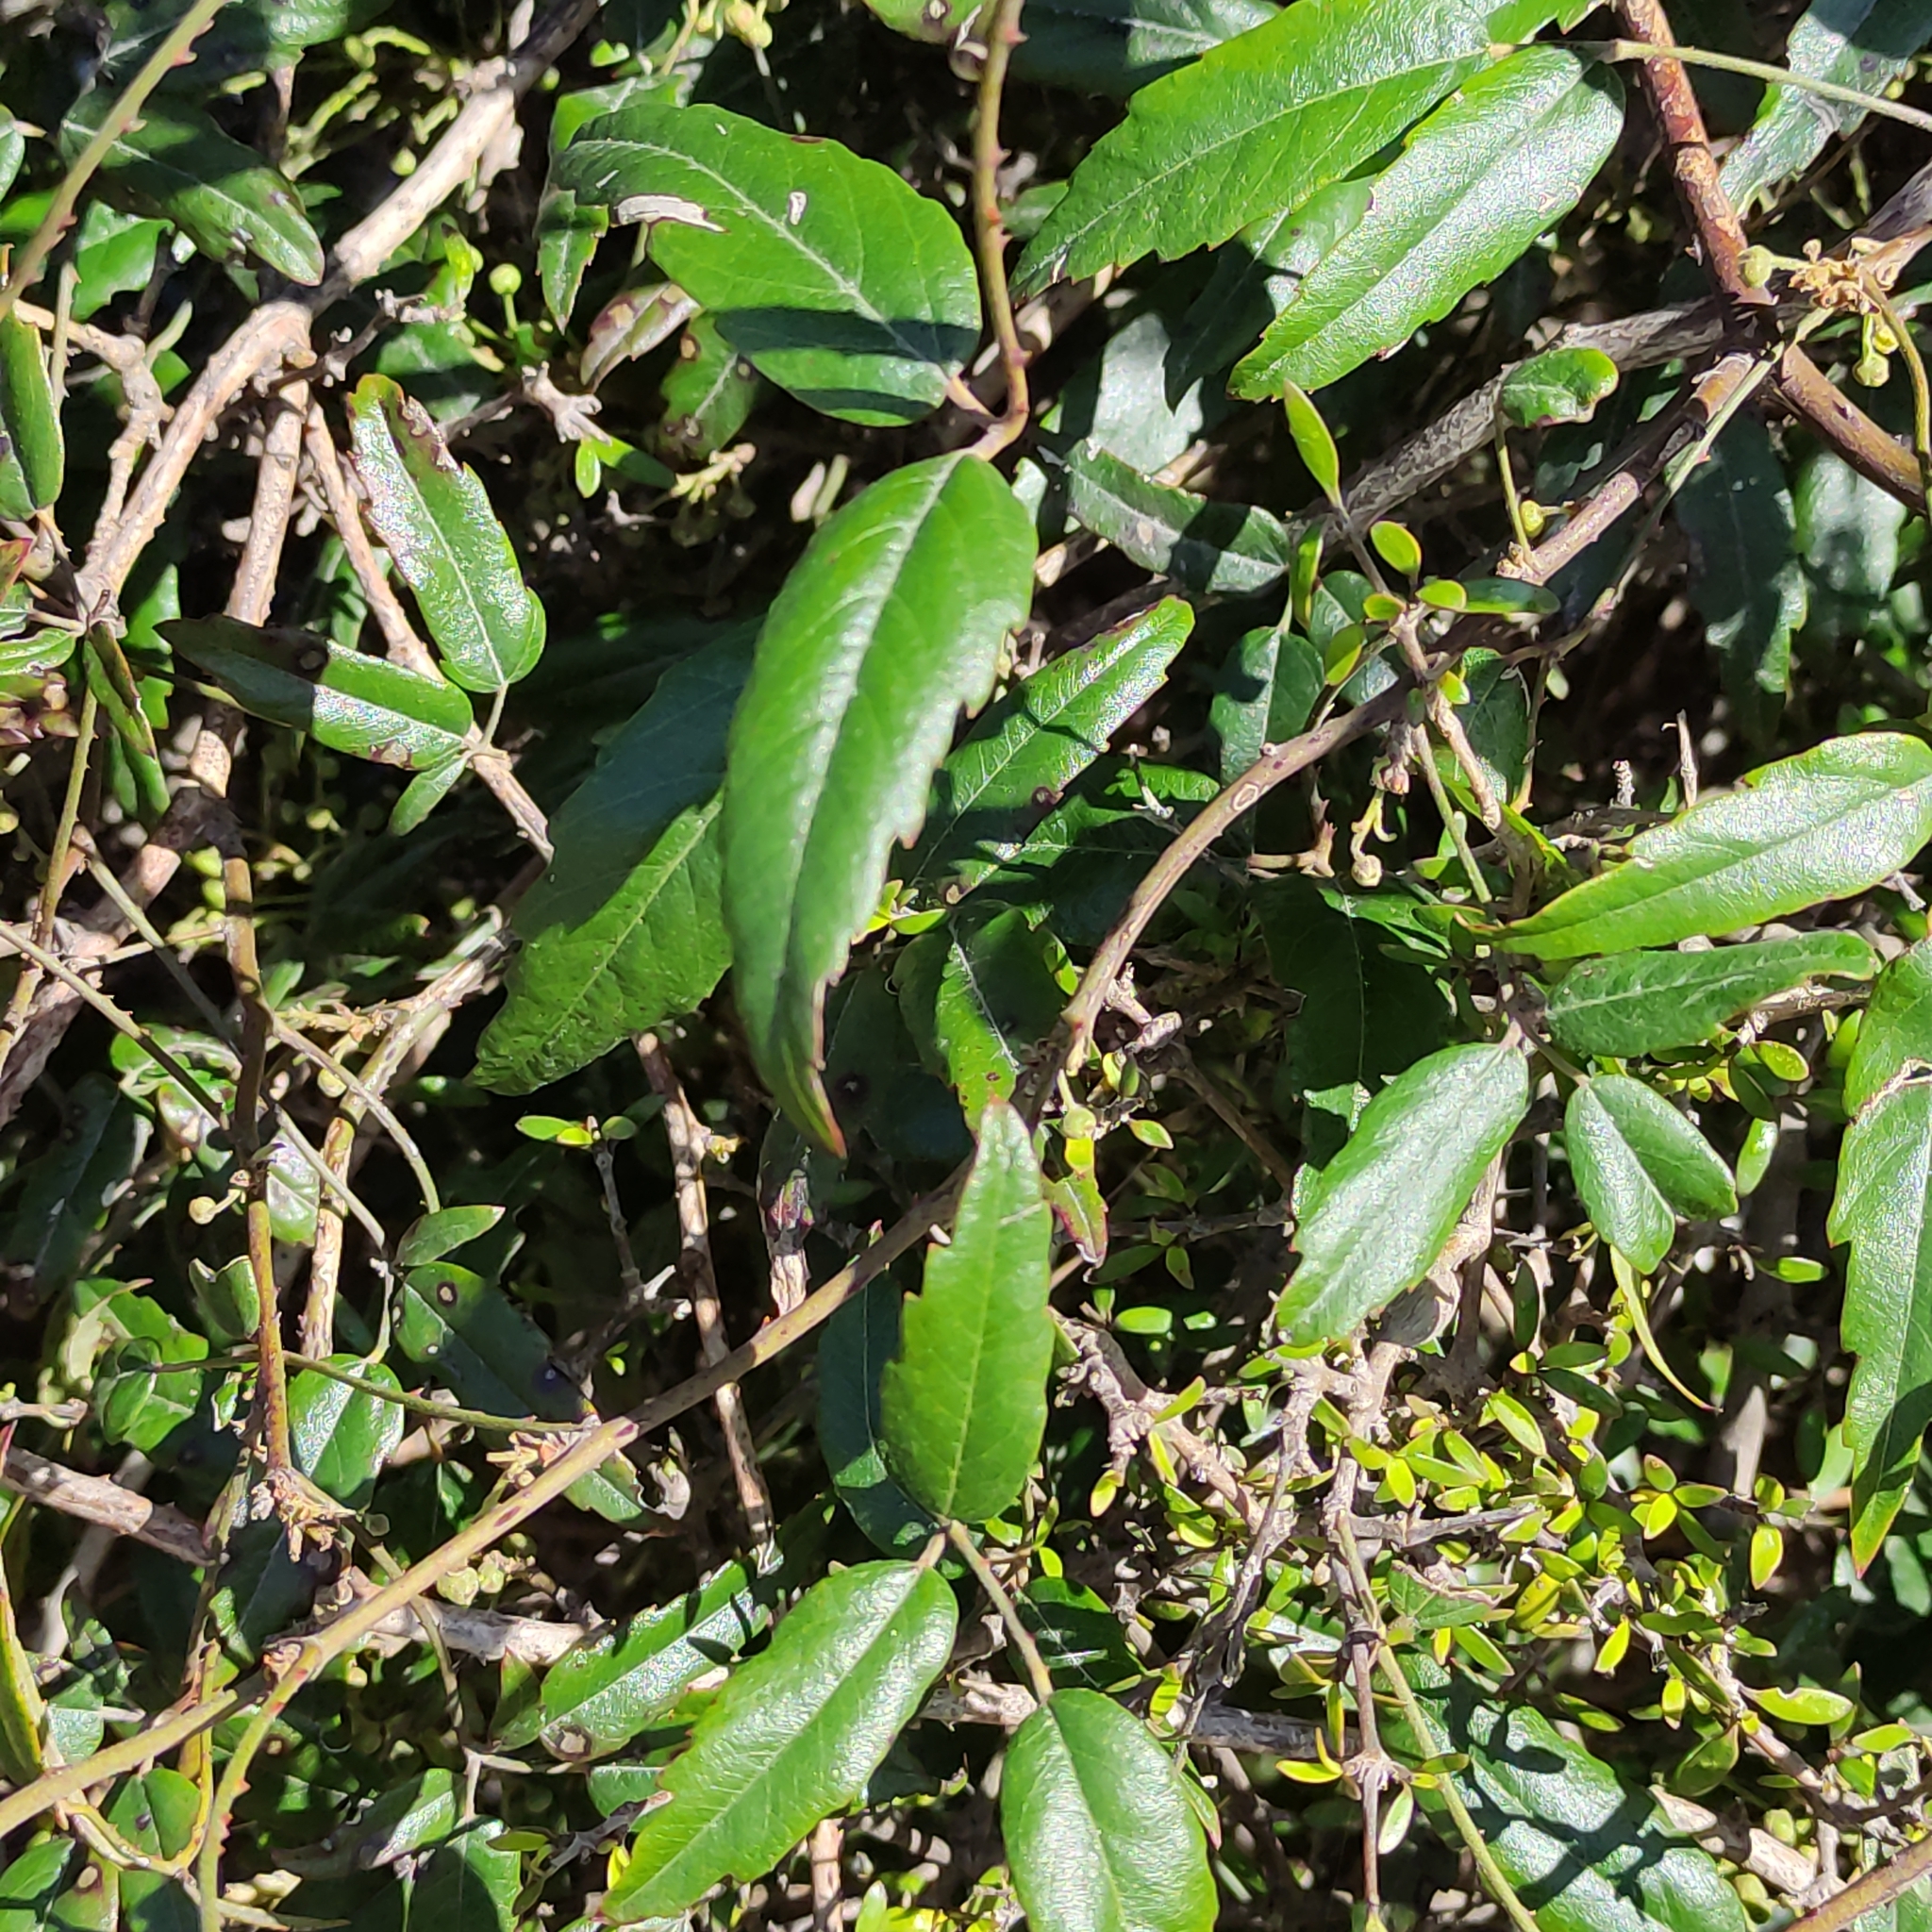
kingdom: Plantae
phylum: Tracheophyta
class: Magnoliopsida
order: Rosales
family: Rosaceae
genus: Rubus
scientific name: Rubus schmidelioides
